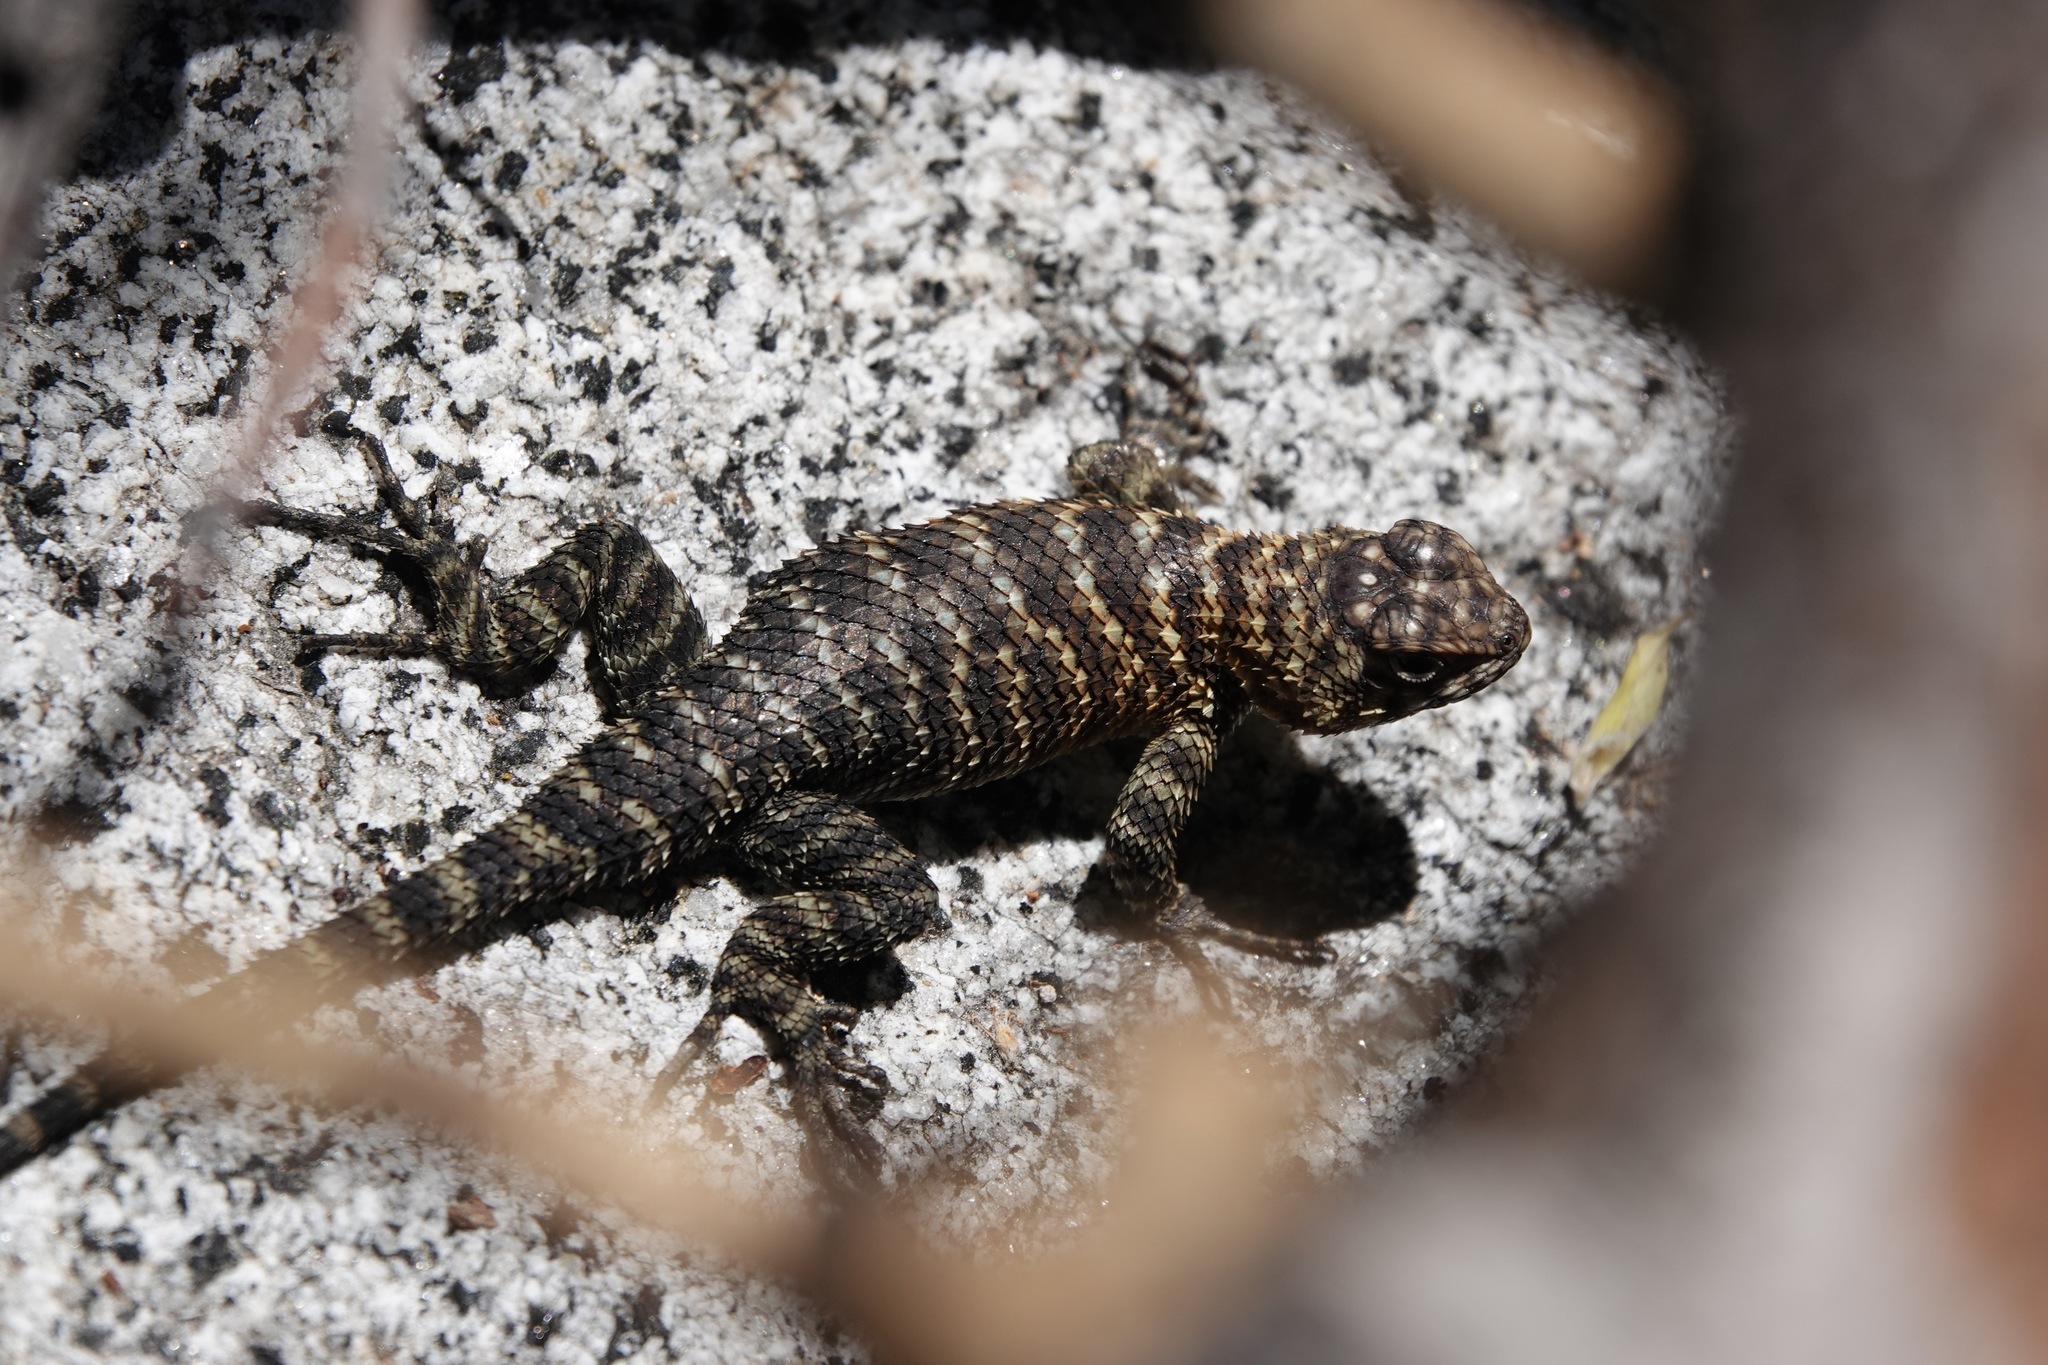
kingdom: Animalia
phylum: Chordata
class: Squamata
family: Phrynosomatidae
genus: Sceloporus
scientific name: Sceloporus orcutti
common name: Granite spiny lizard
